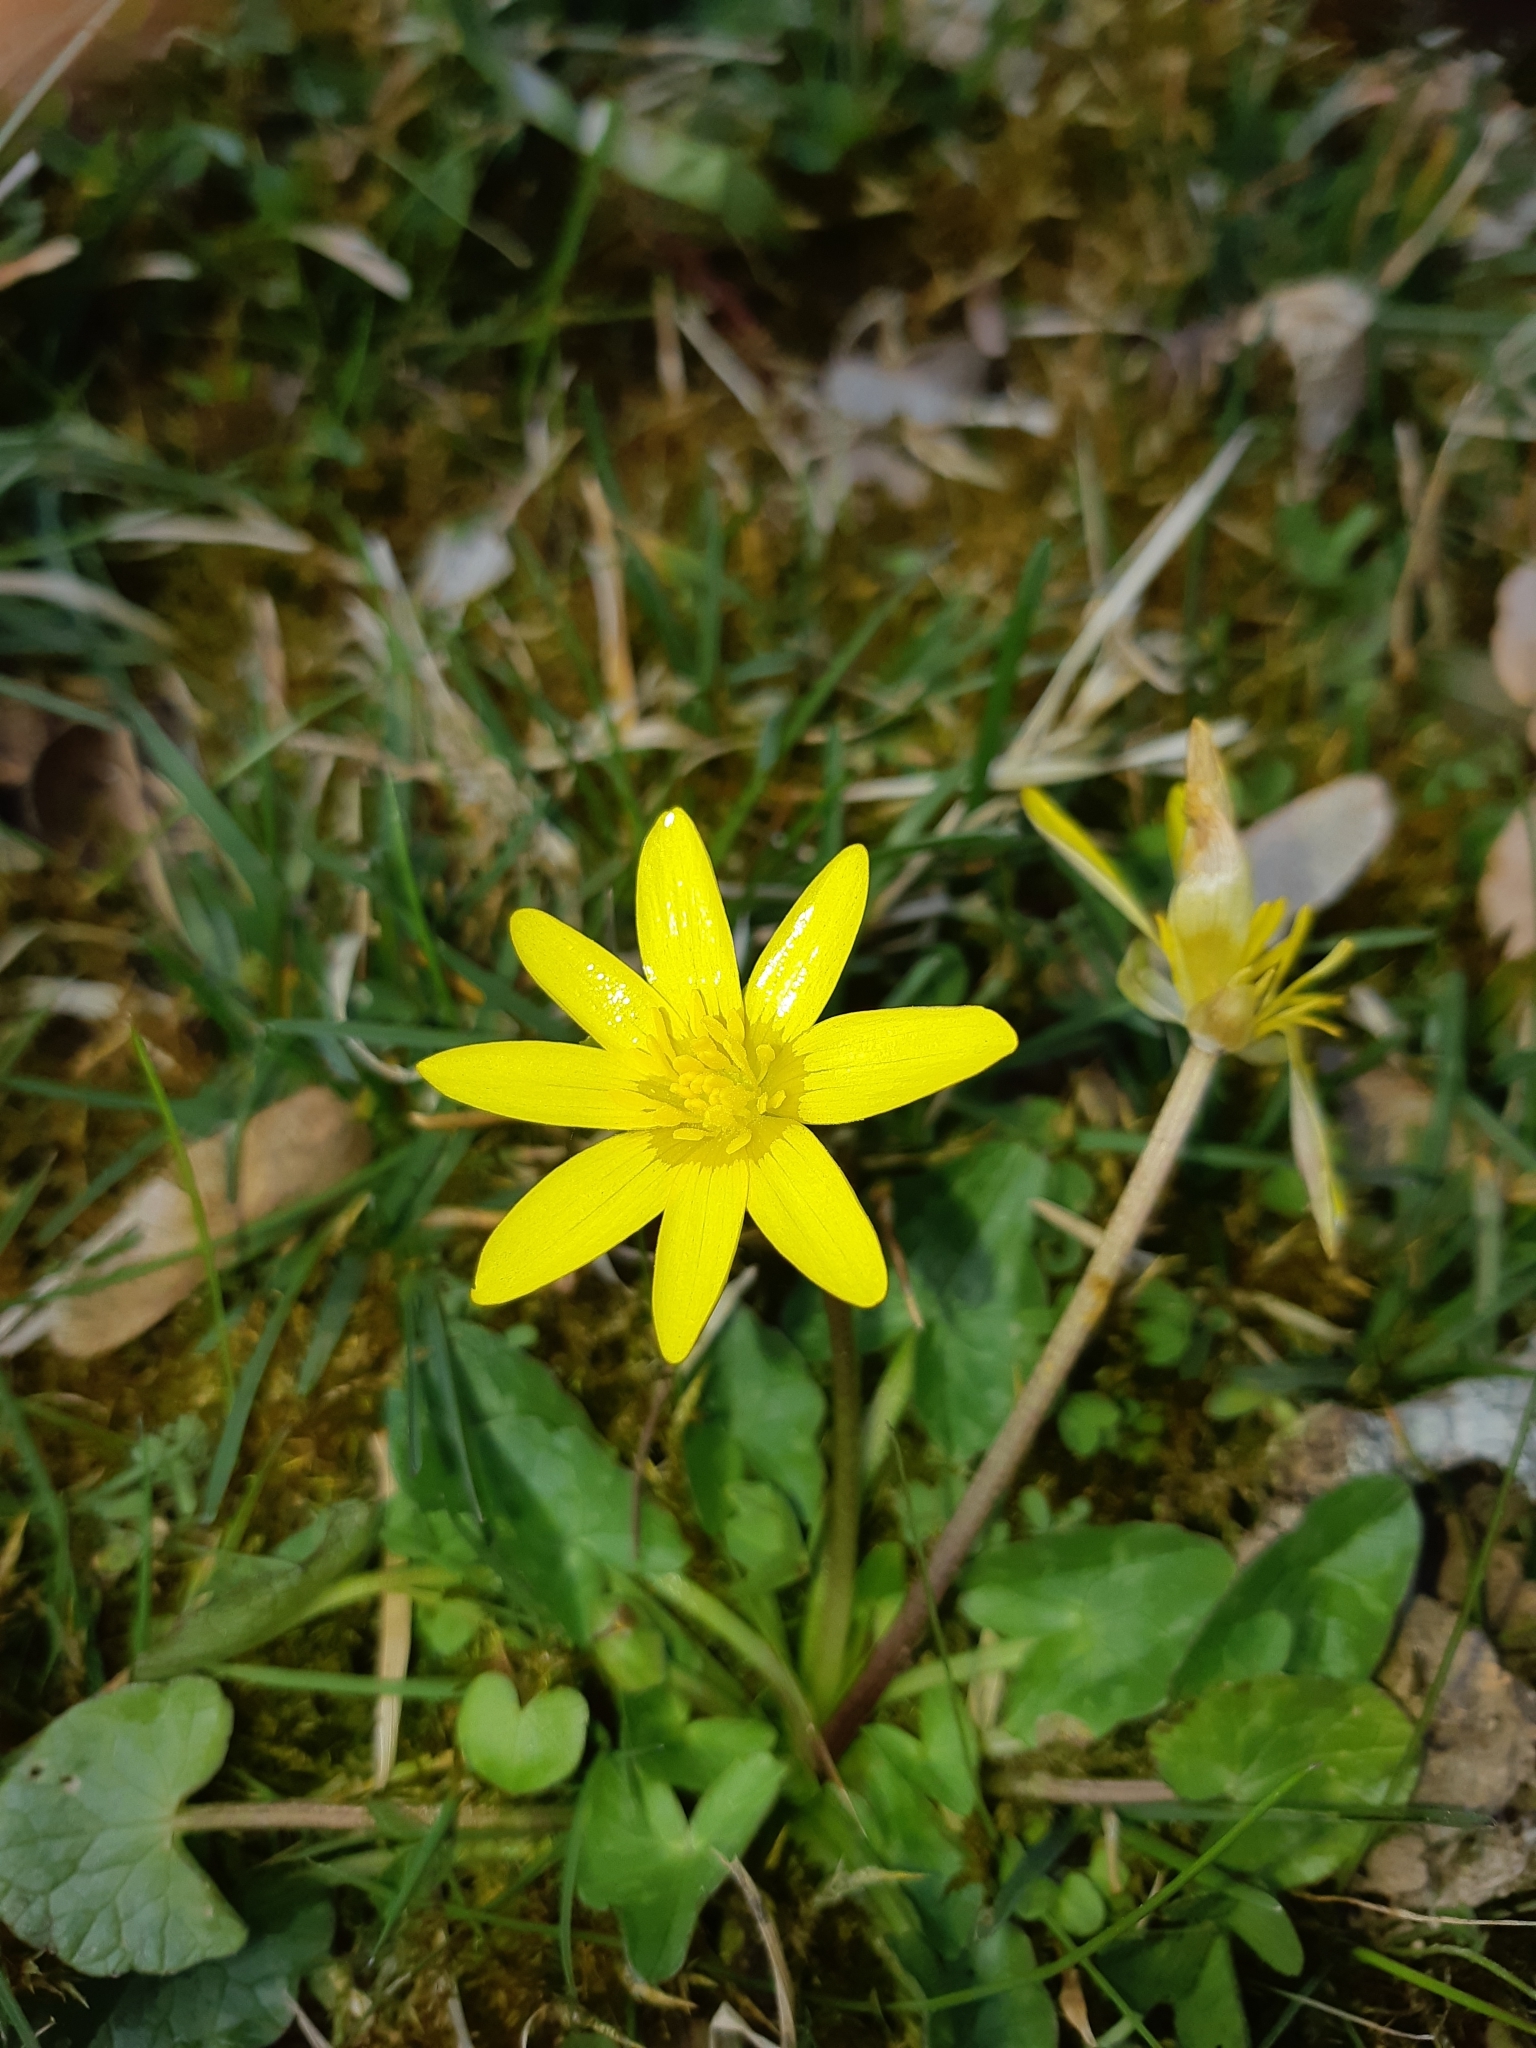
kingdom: Plantae
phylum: Tracheophyta
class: Magnoliopsida
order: Ranunculales
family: Ranunculaceae
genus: Ficaria
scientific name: Ficaria verna
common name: Lesser celandine
